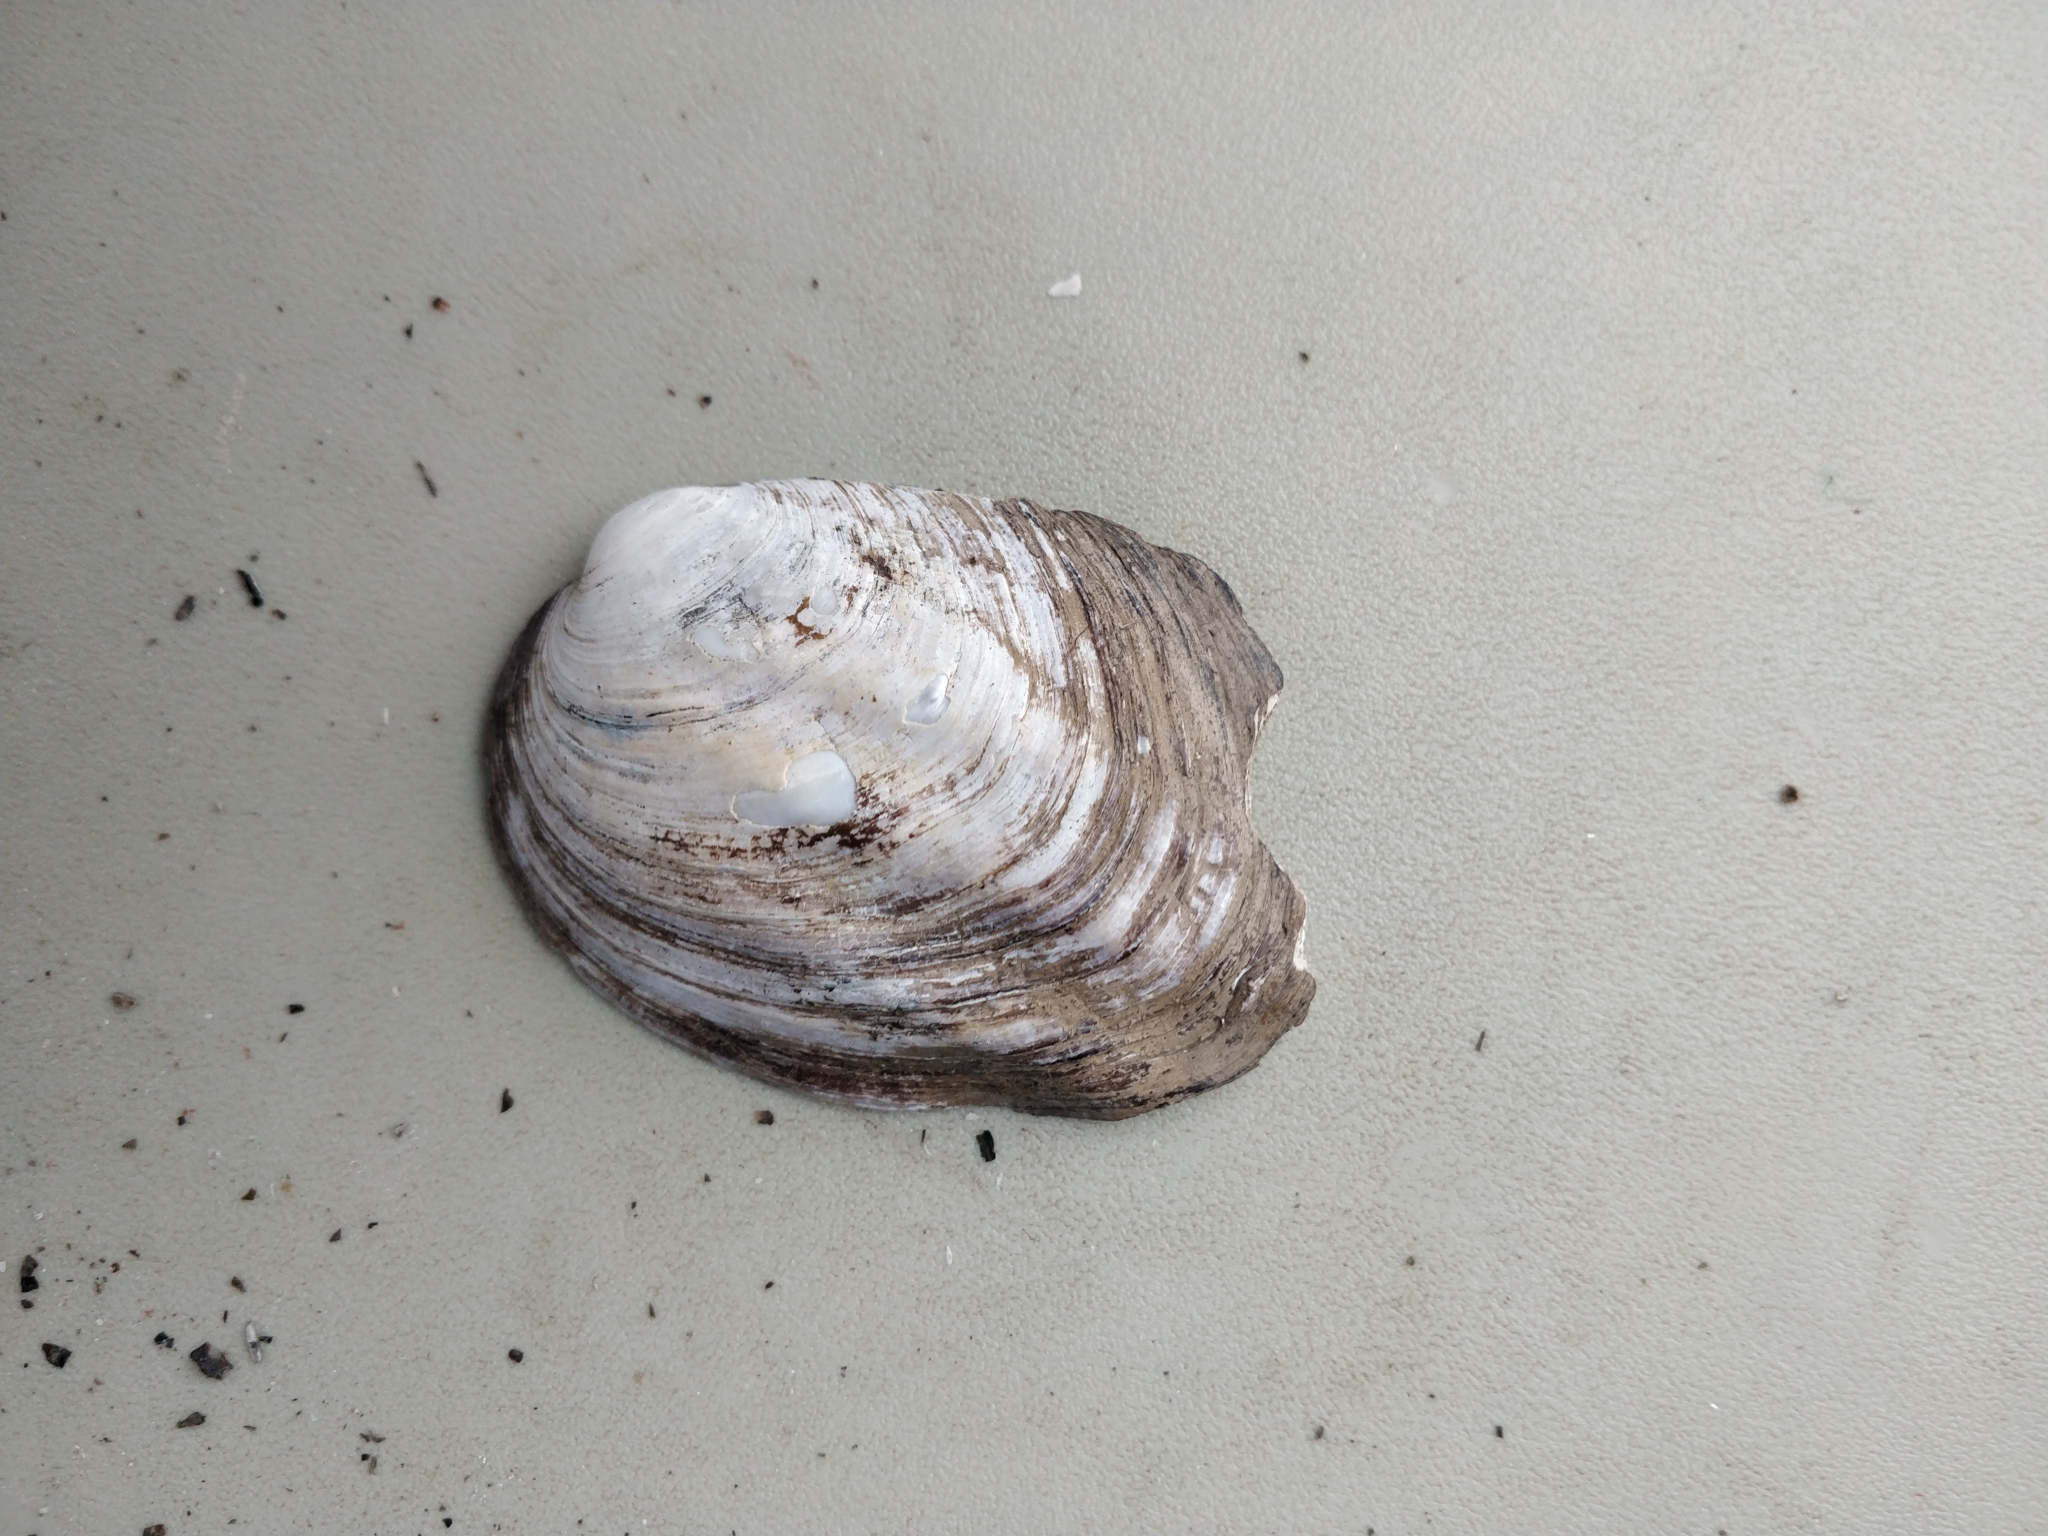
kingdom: Animalia
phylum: Mollusca
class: Bivalvia
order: Unionida
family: Unionidae
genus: Amblema
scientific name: Amblema plicata
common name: Threeridge
